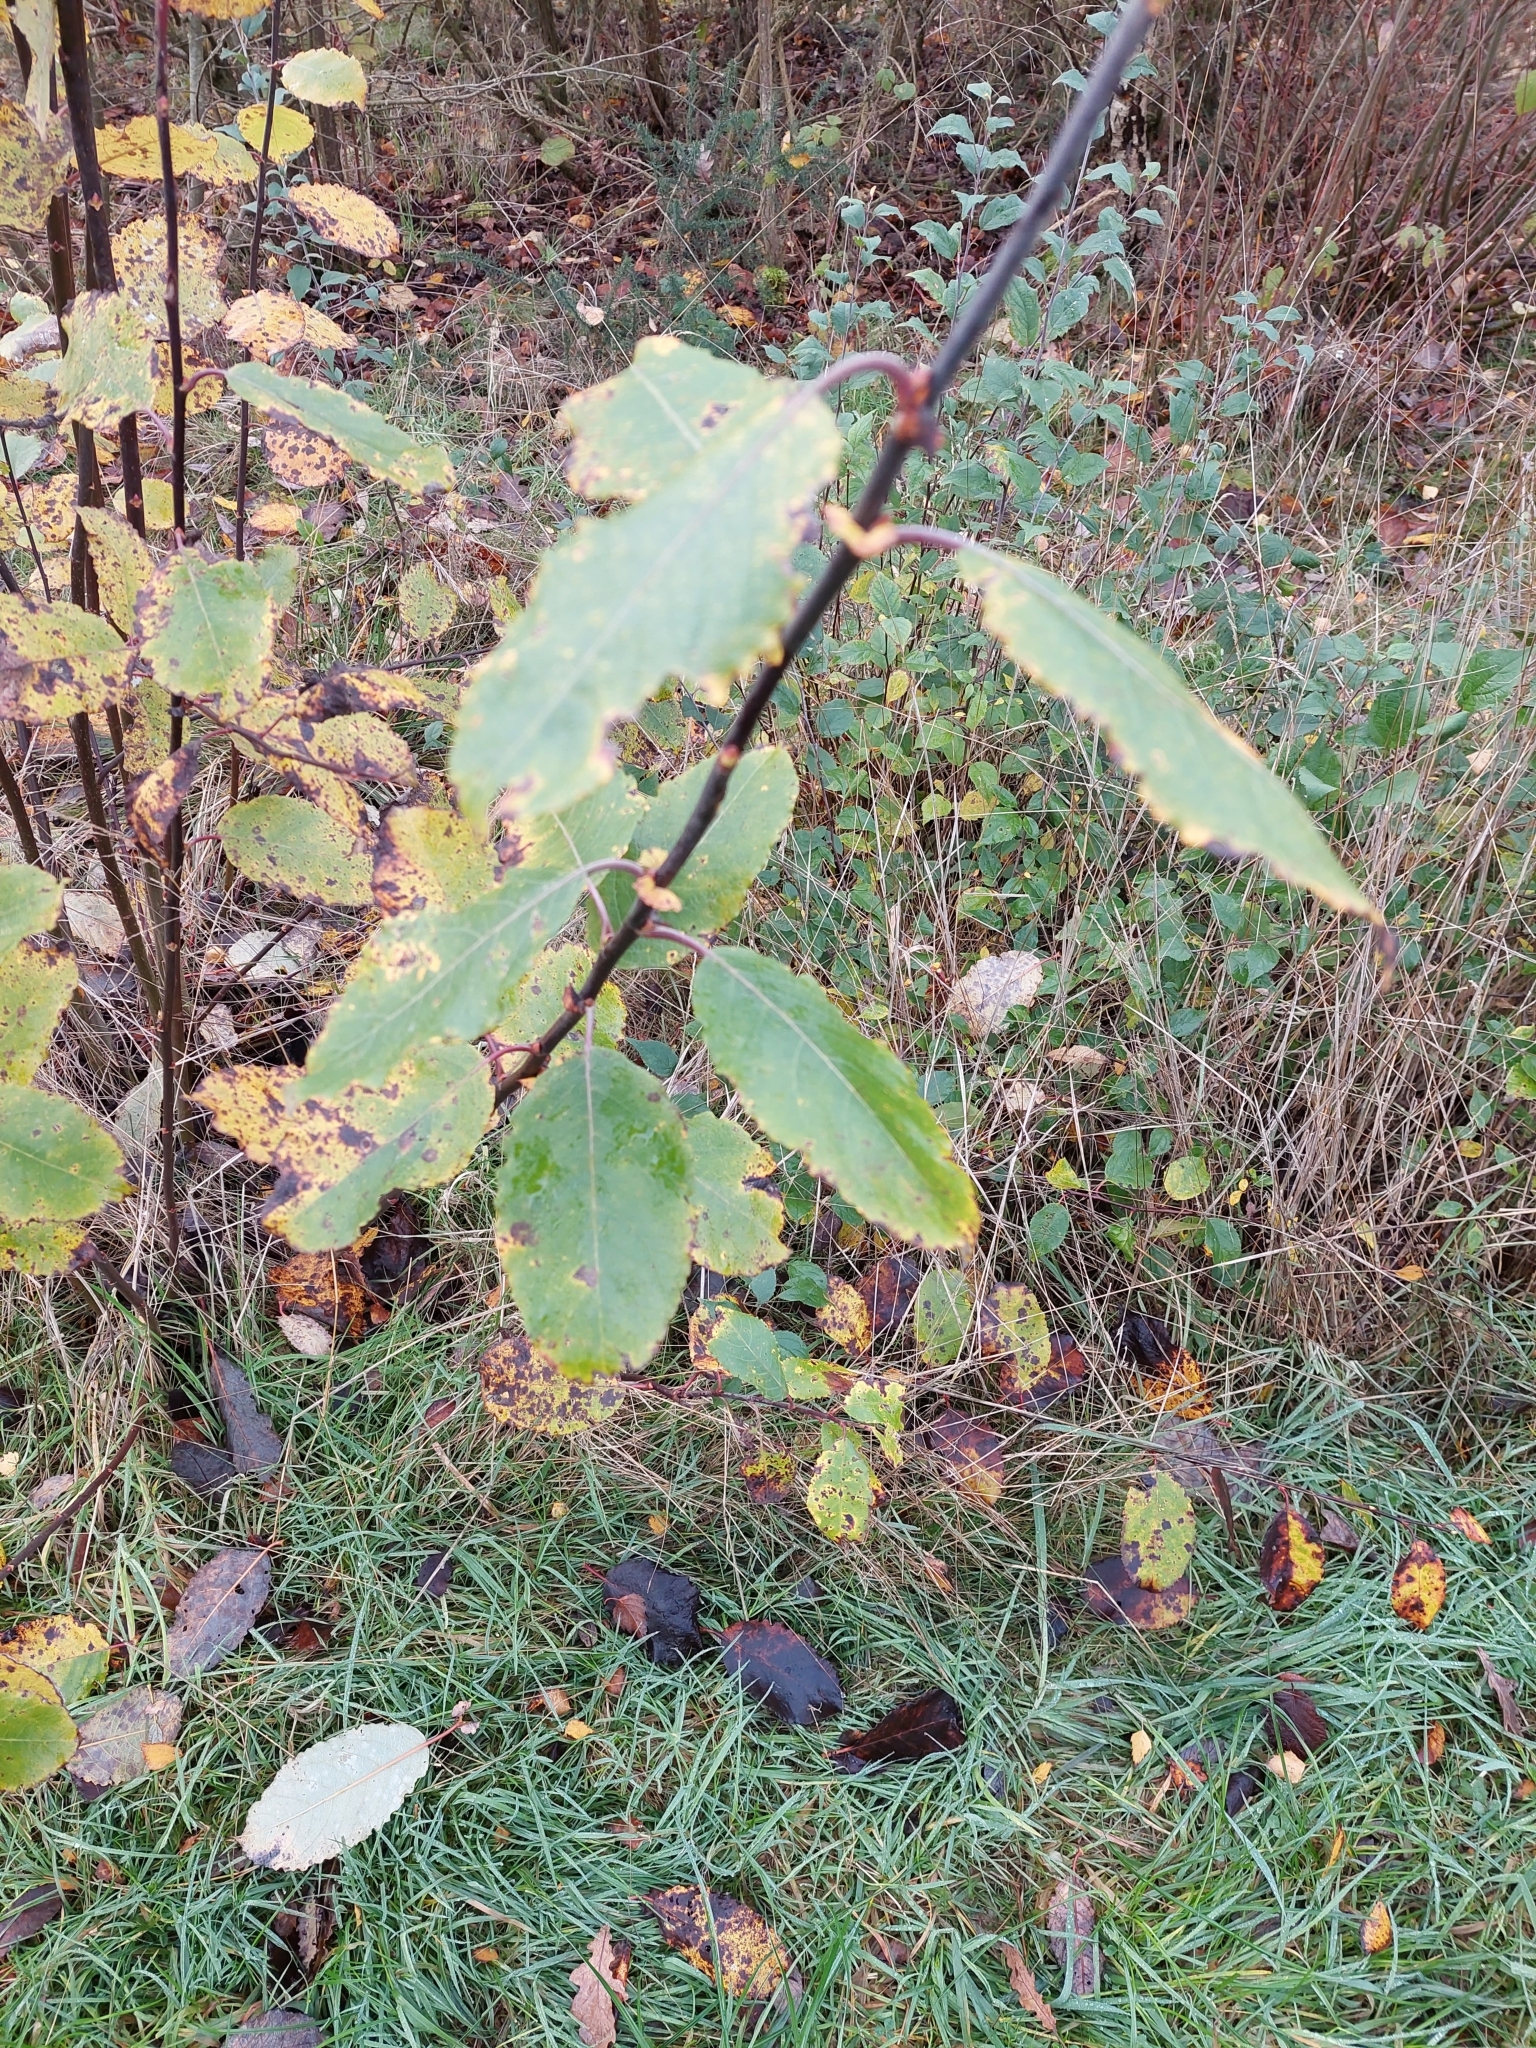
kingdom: Plantae
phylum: Tracheophyta
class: Magnoliopsida
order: Malpighiales
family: Salicaceae
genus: Salix
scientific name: Salix caprea
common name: Goat willow
